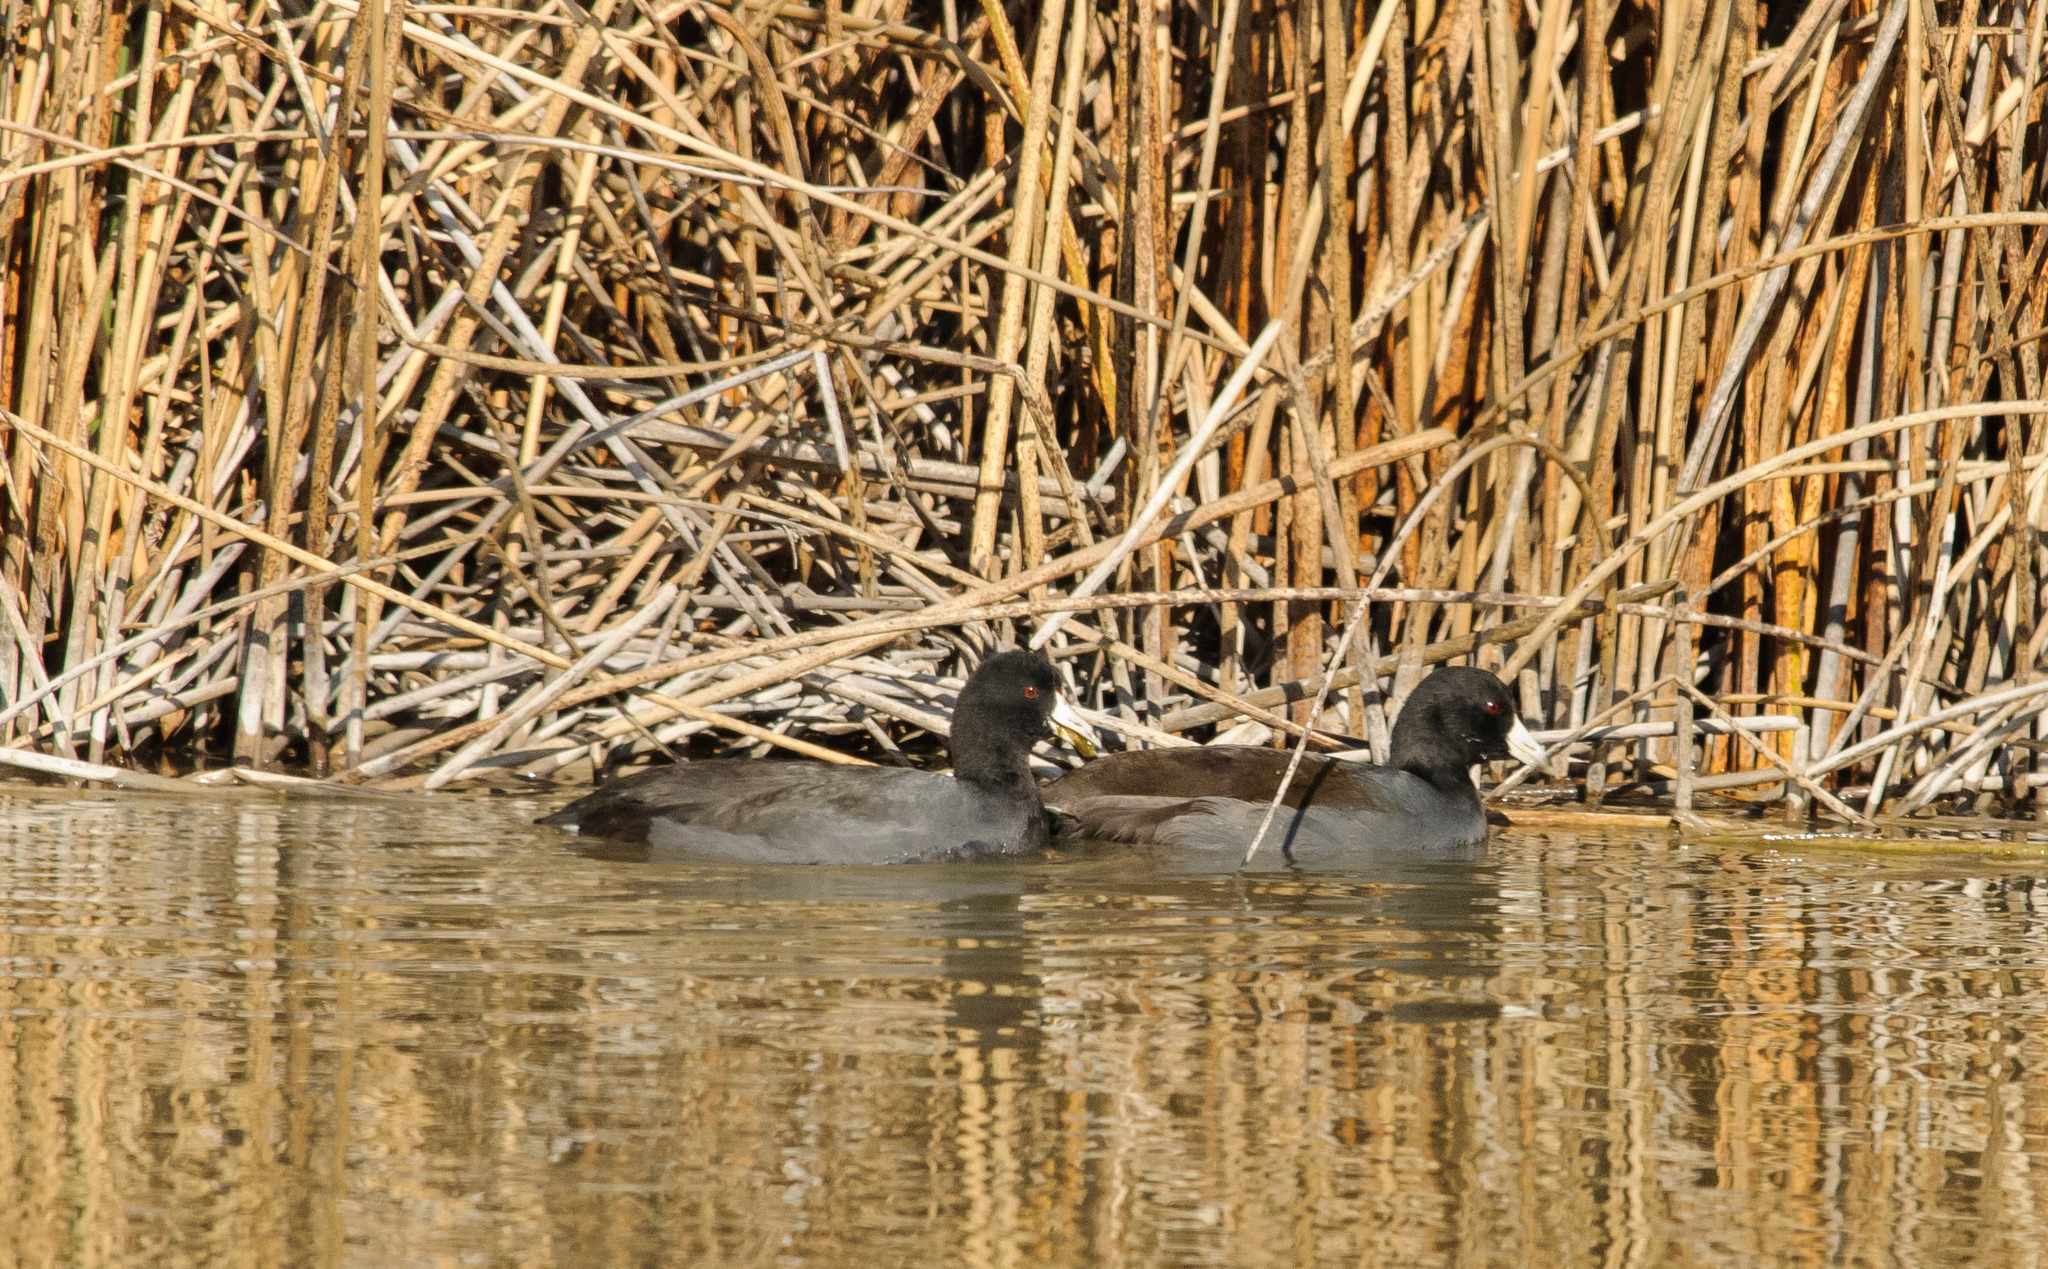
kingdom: Animalia
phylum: Chordata
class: Aves
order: Gruiformes
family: Rallidae
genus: Fulica
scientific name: Fulica americana
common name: American coot
